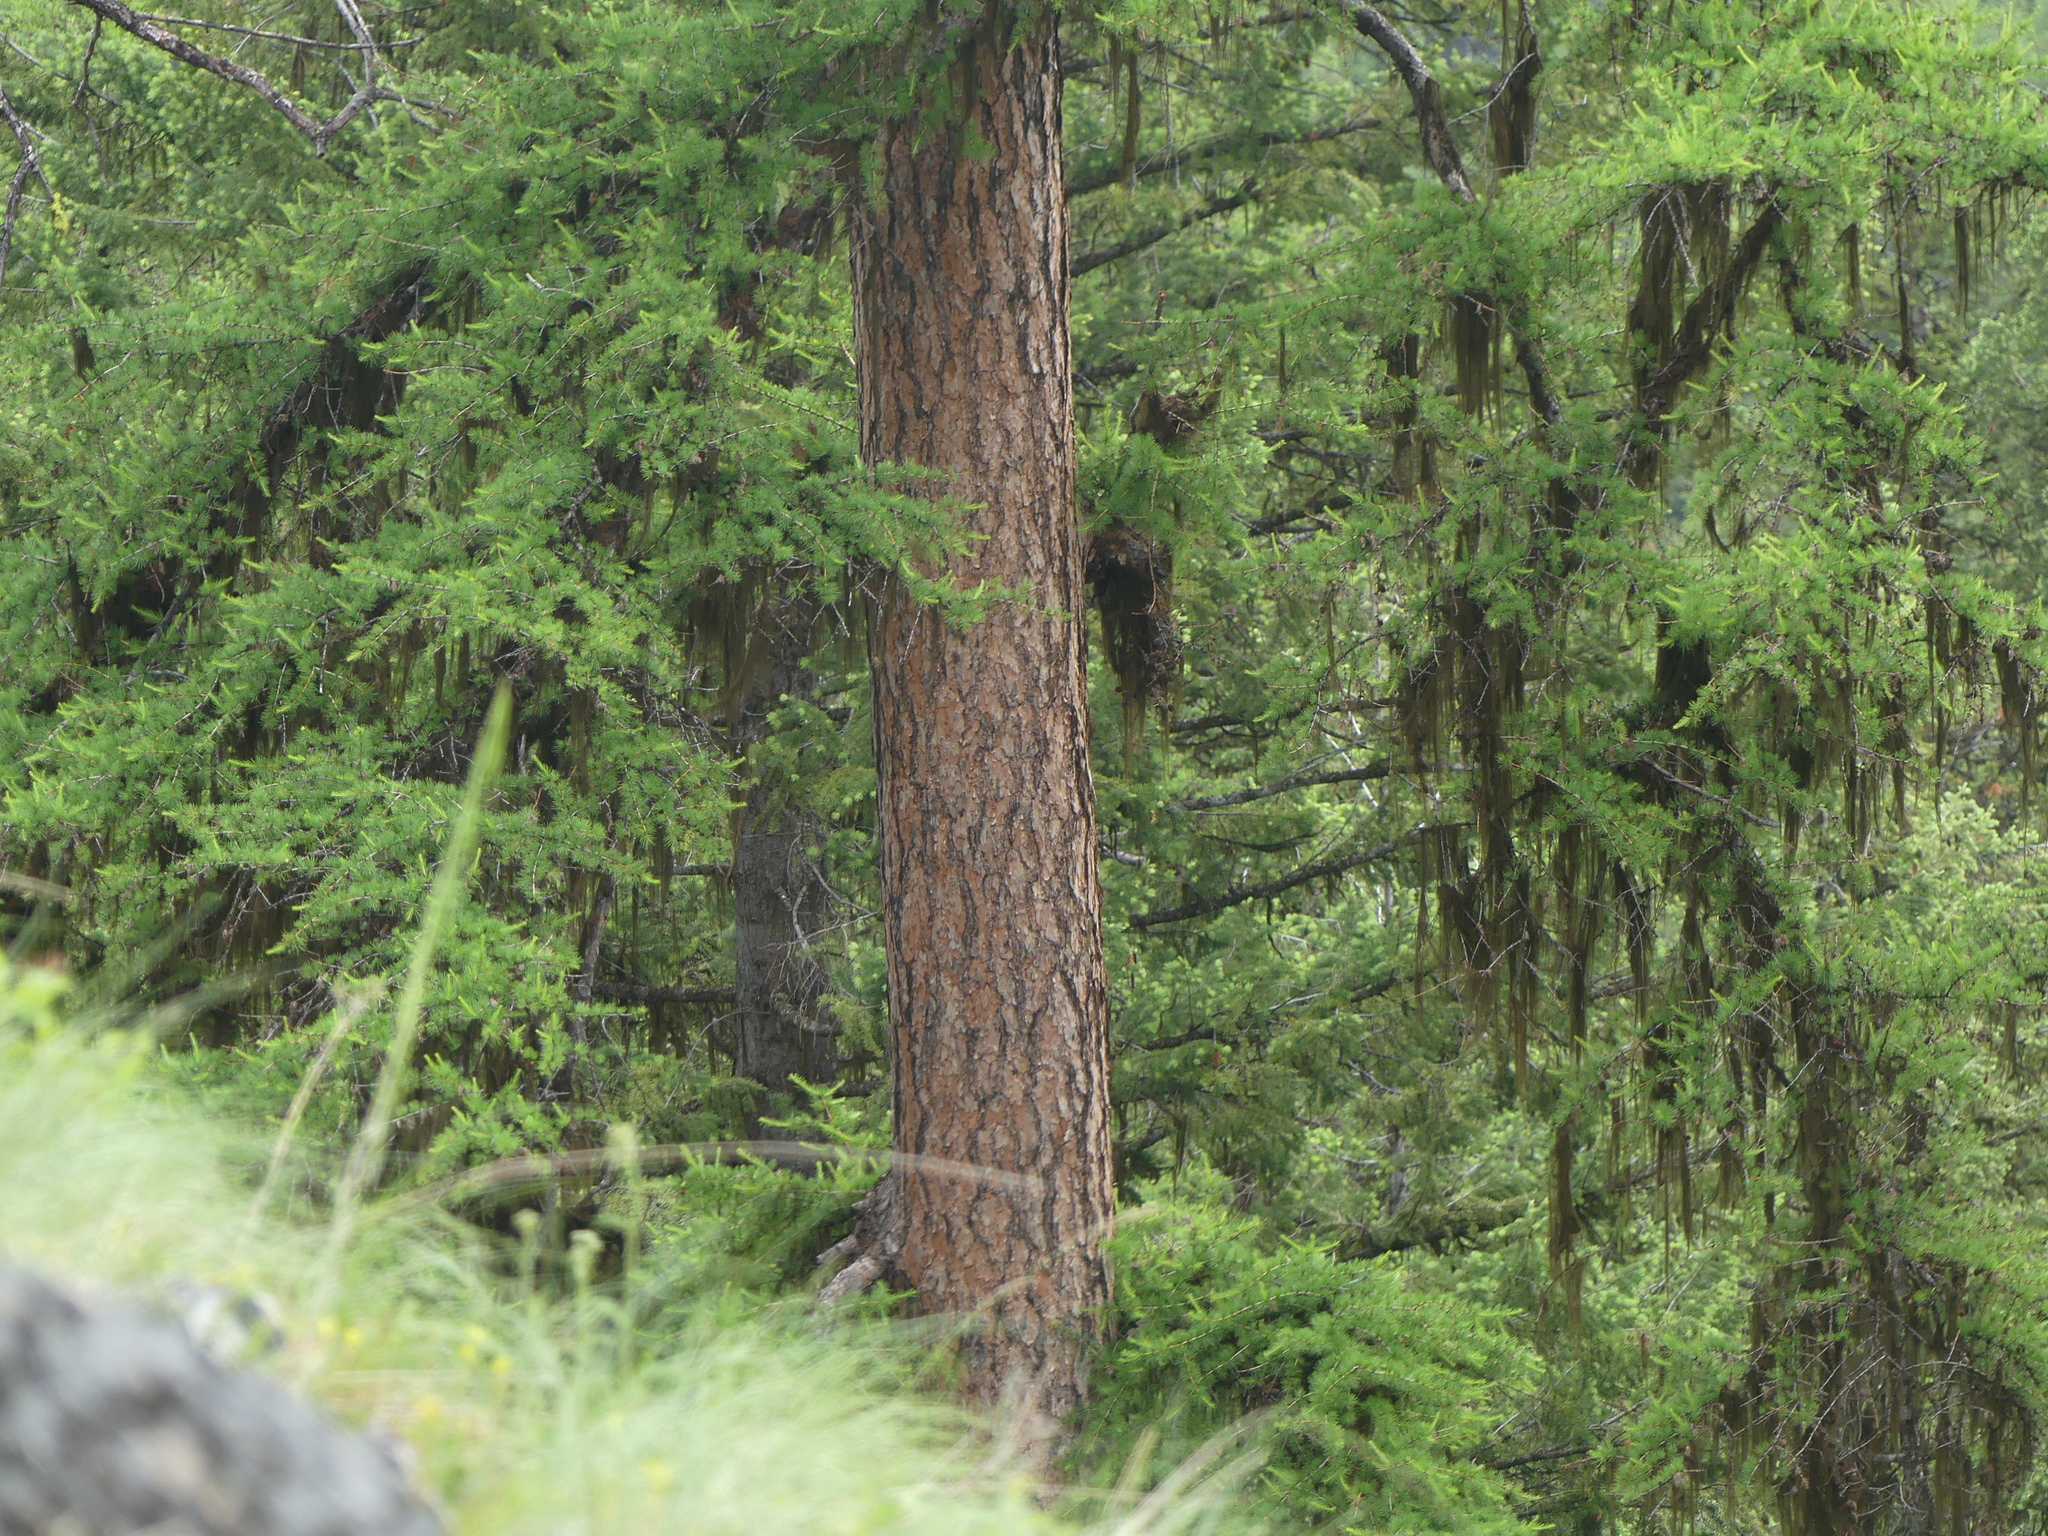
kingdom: Plantae
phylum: Tracheophyta
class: Pinopsida
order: Pinales
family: Pinaceae
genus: Larix
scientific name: Larix occidentalis
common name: Western larch
